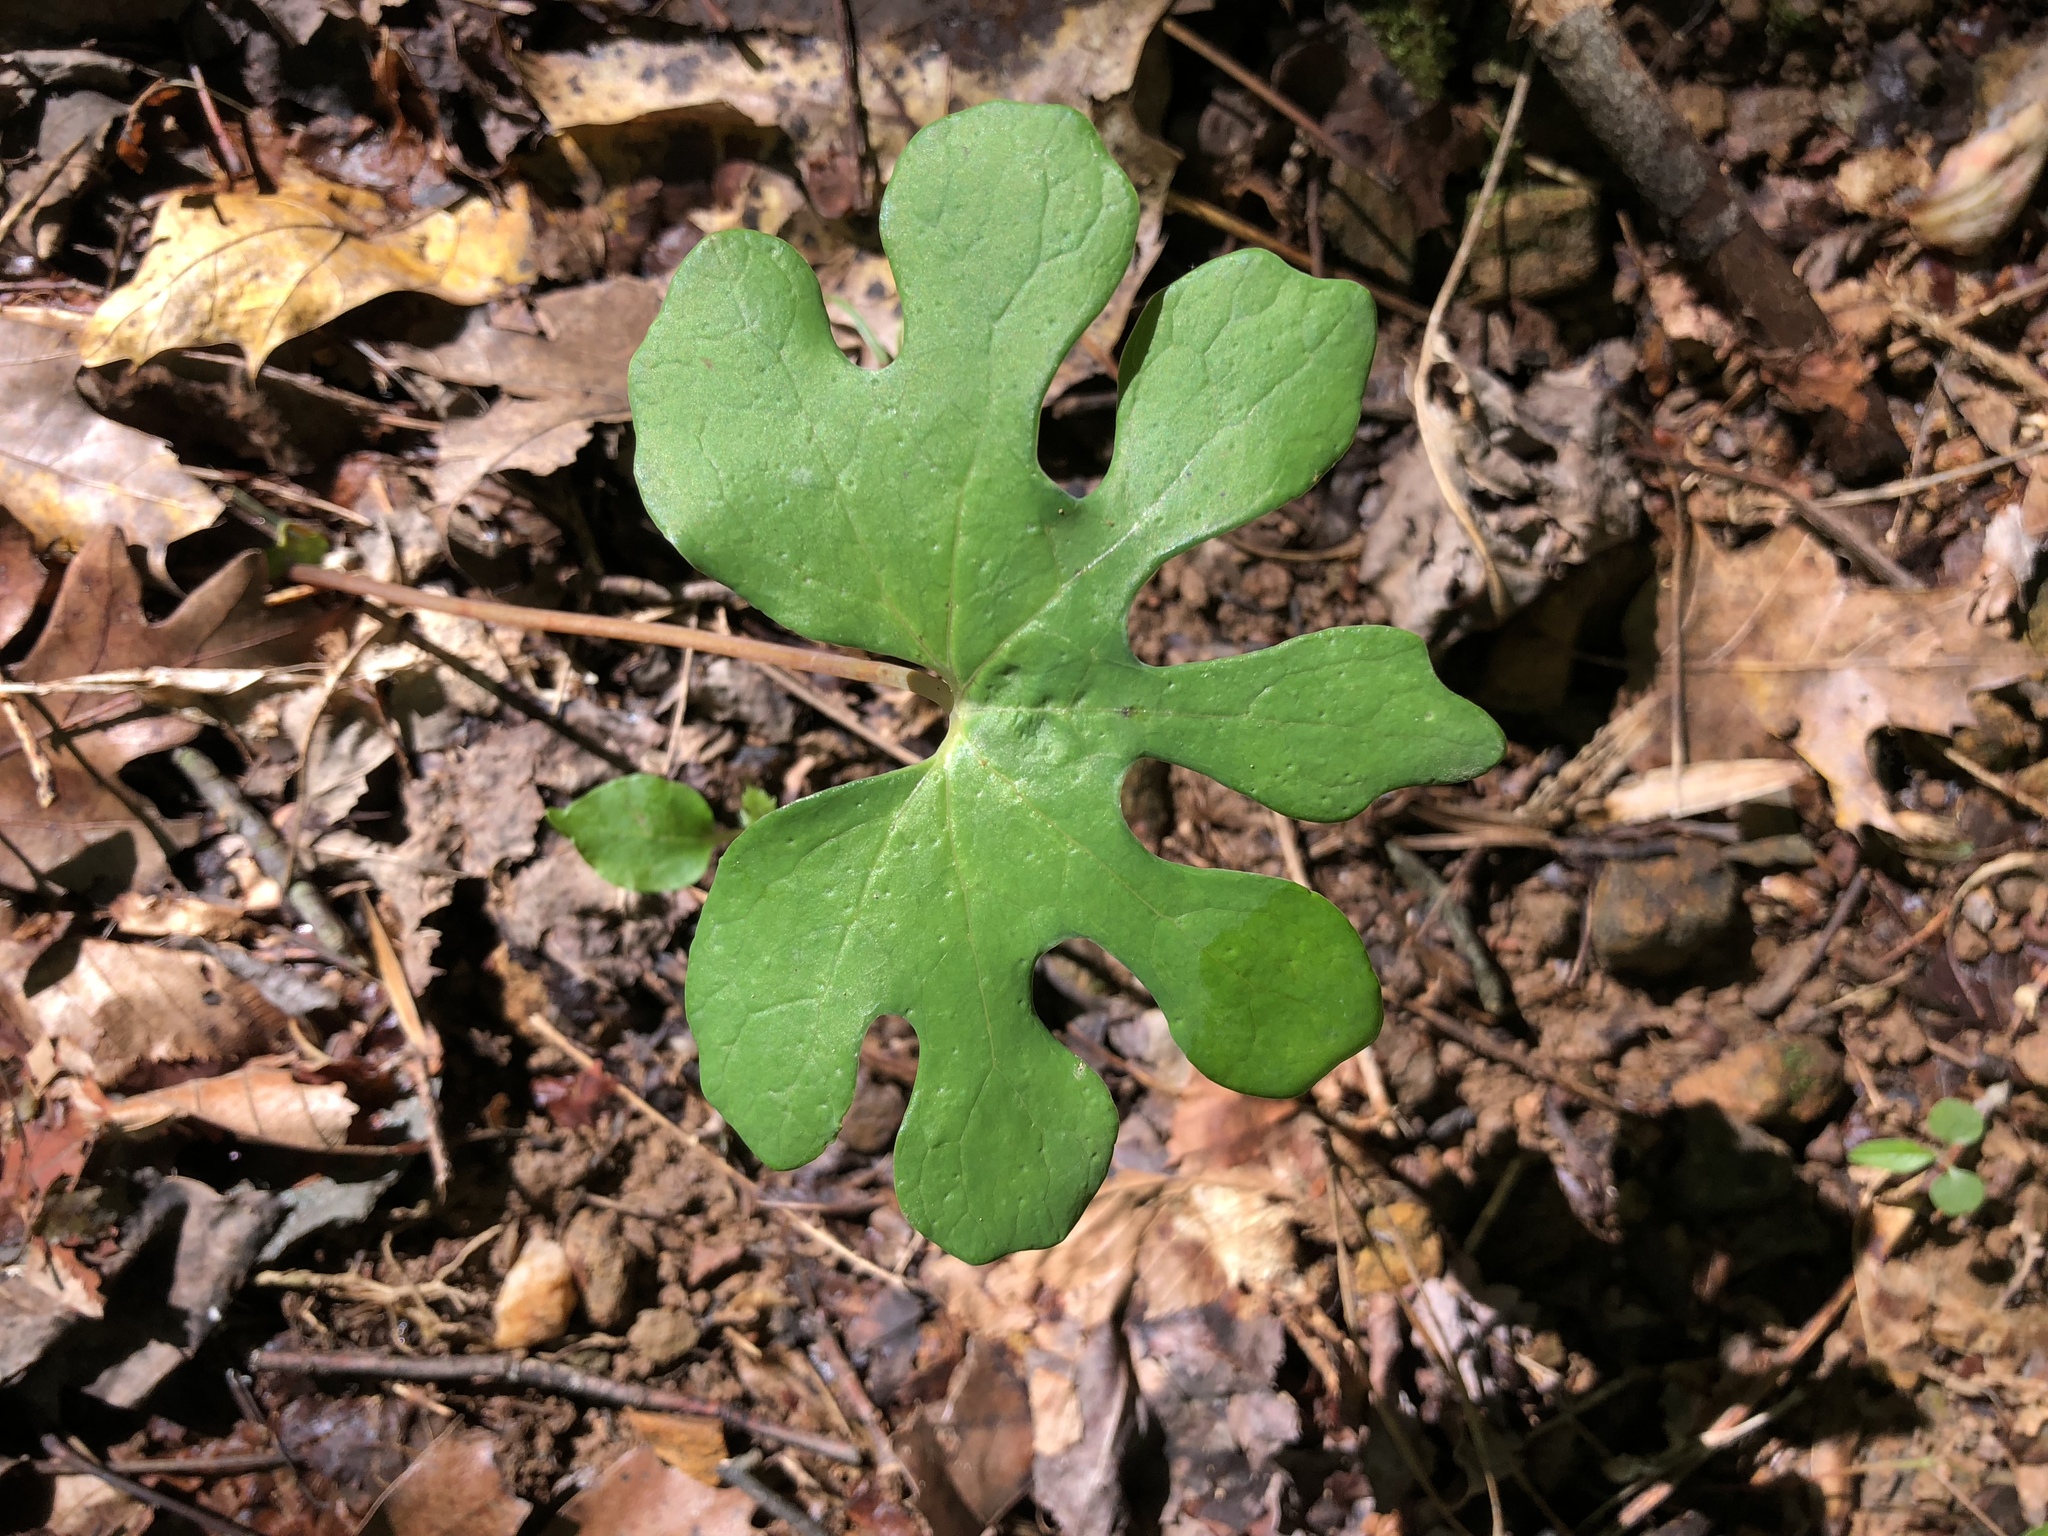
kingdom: Plantae
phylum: Tracheophyta
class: Magnoliopsida
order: Ranunculales
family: Papaveraceae
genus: Sanguinaria
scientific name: Sanguinaria canadensis
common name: Bloodroot
